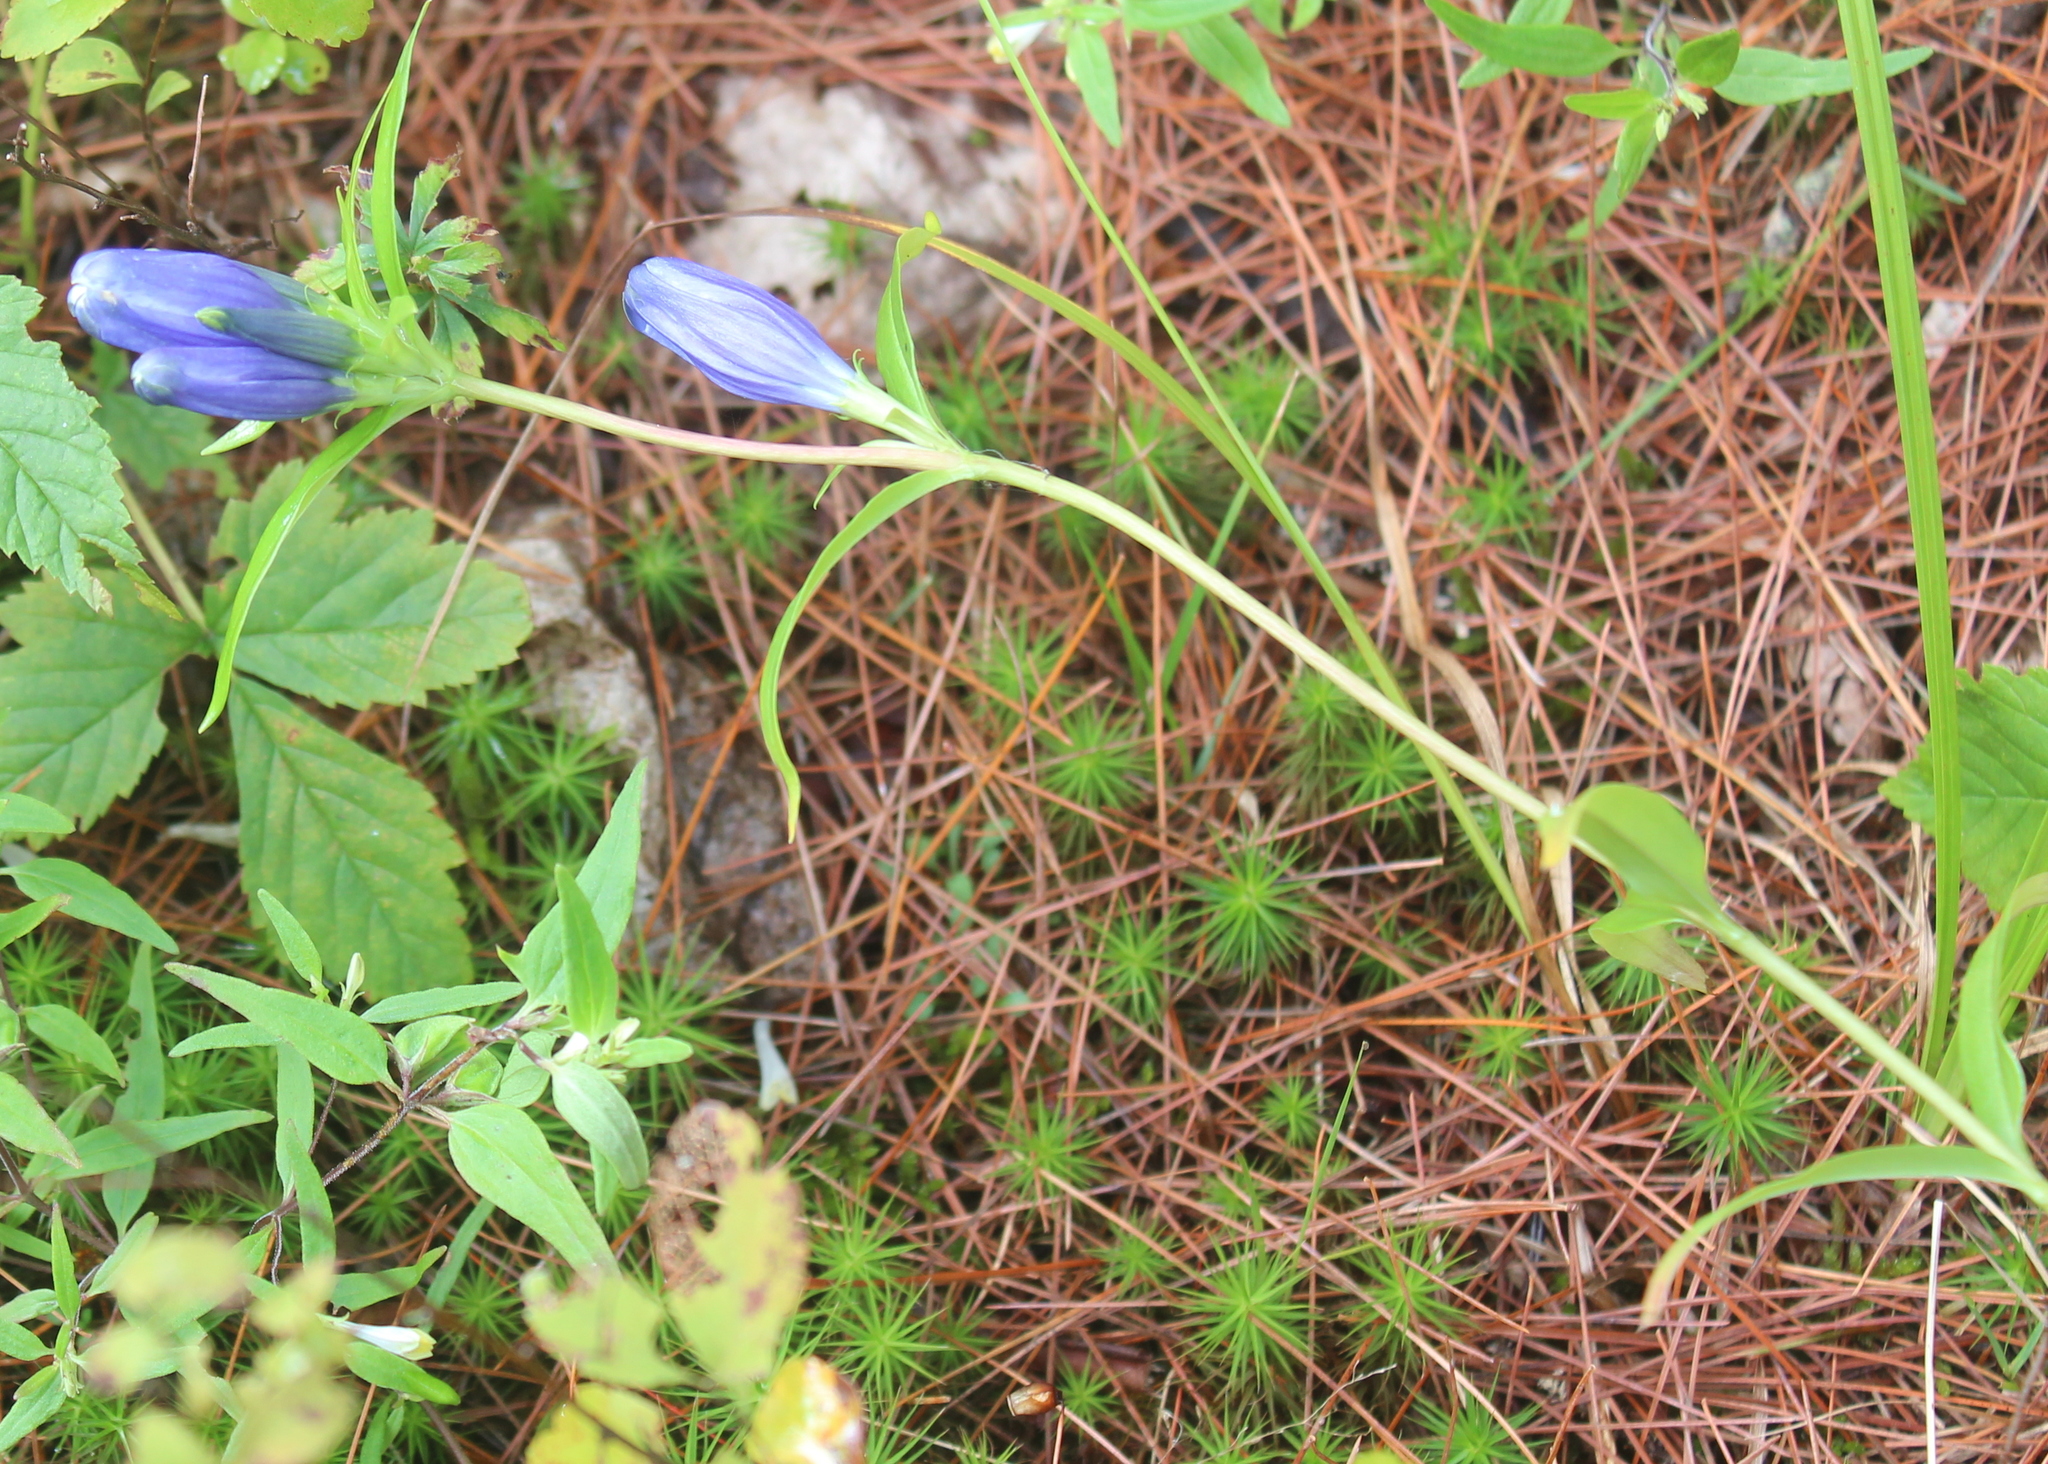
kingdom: Plantae
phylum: Tracheophyta
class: Magnoliopsida
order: Gentianales
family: Gentianaceae
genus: Gentiana
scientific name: Gentiana linearis
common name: Bastard gentian
